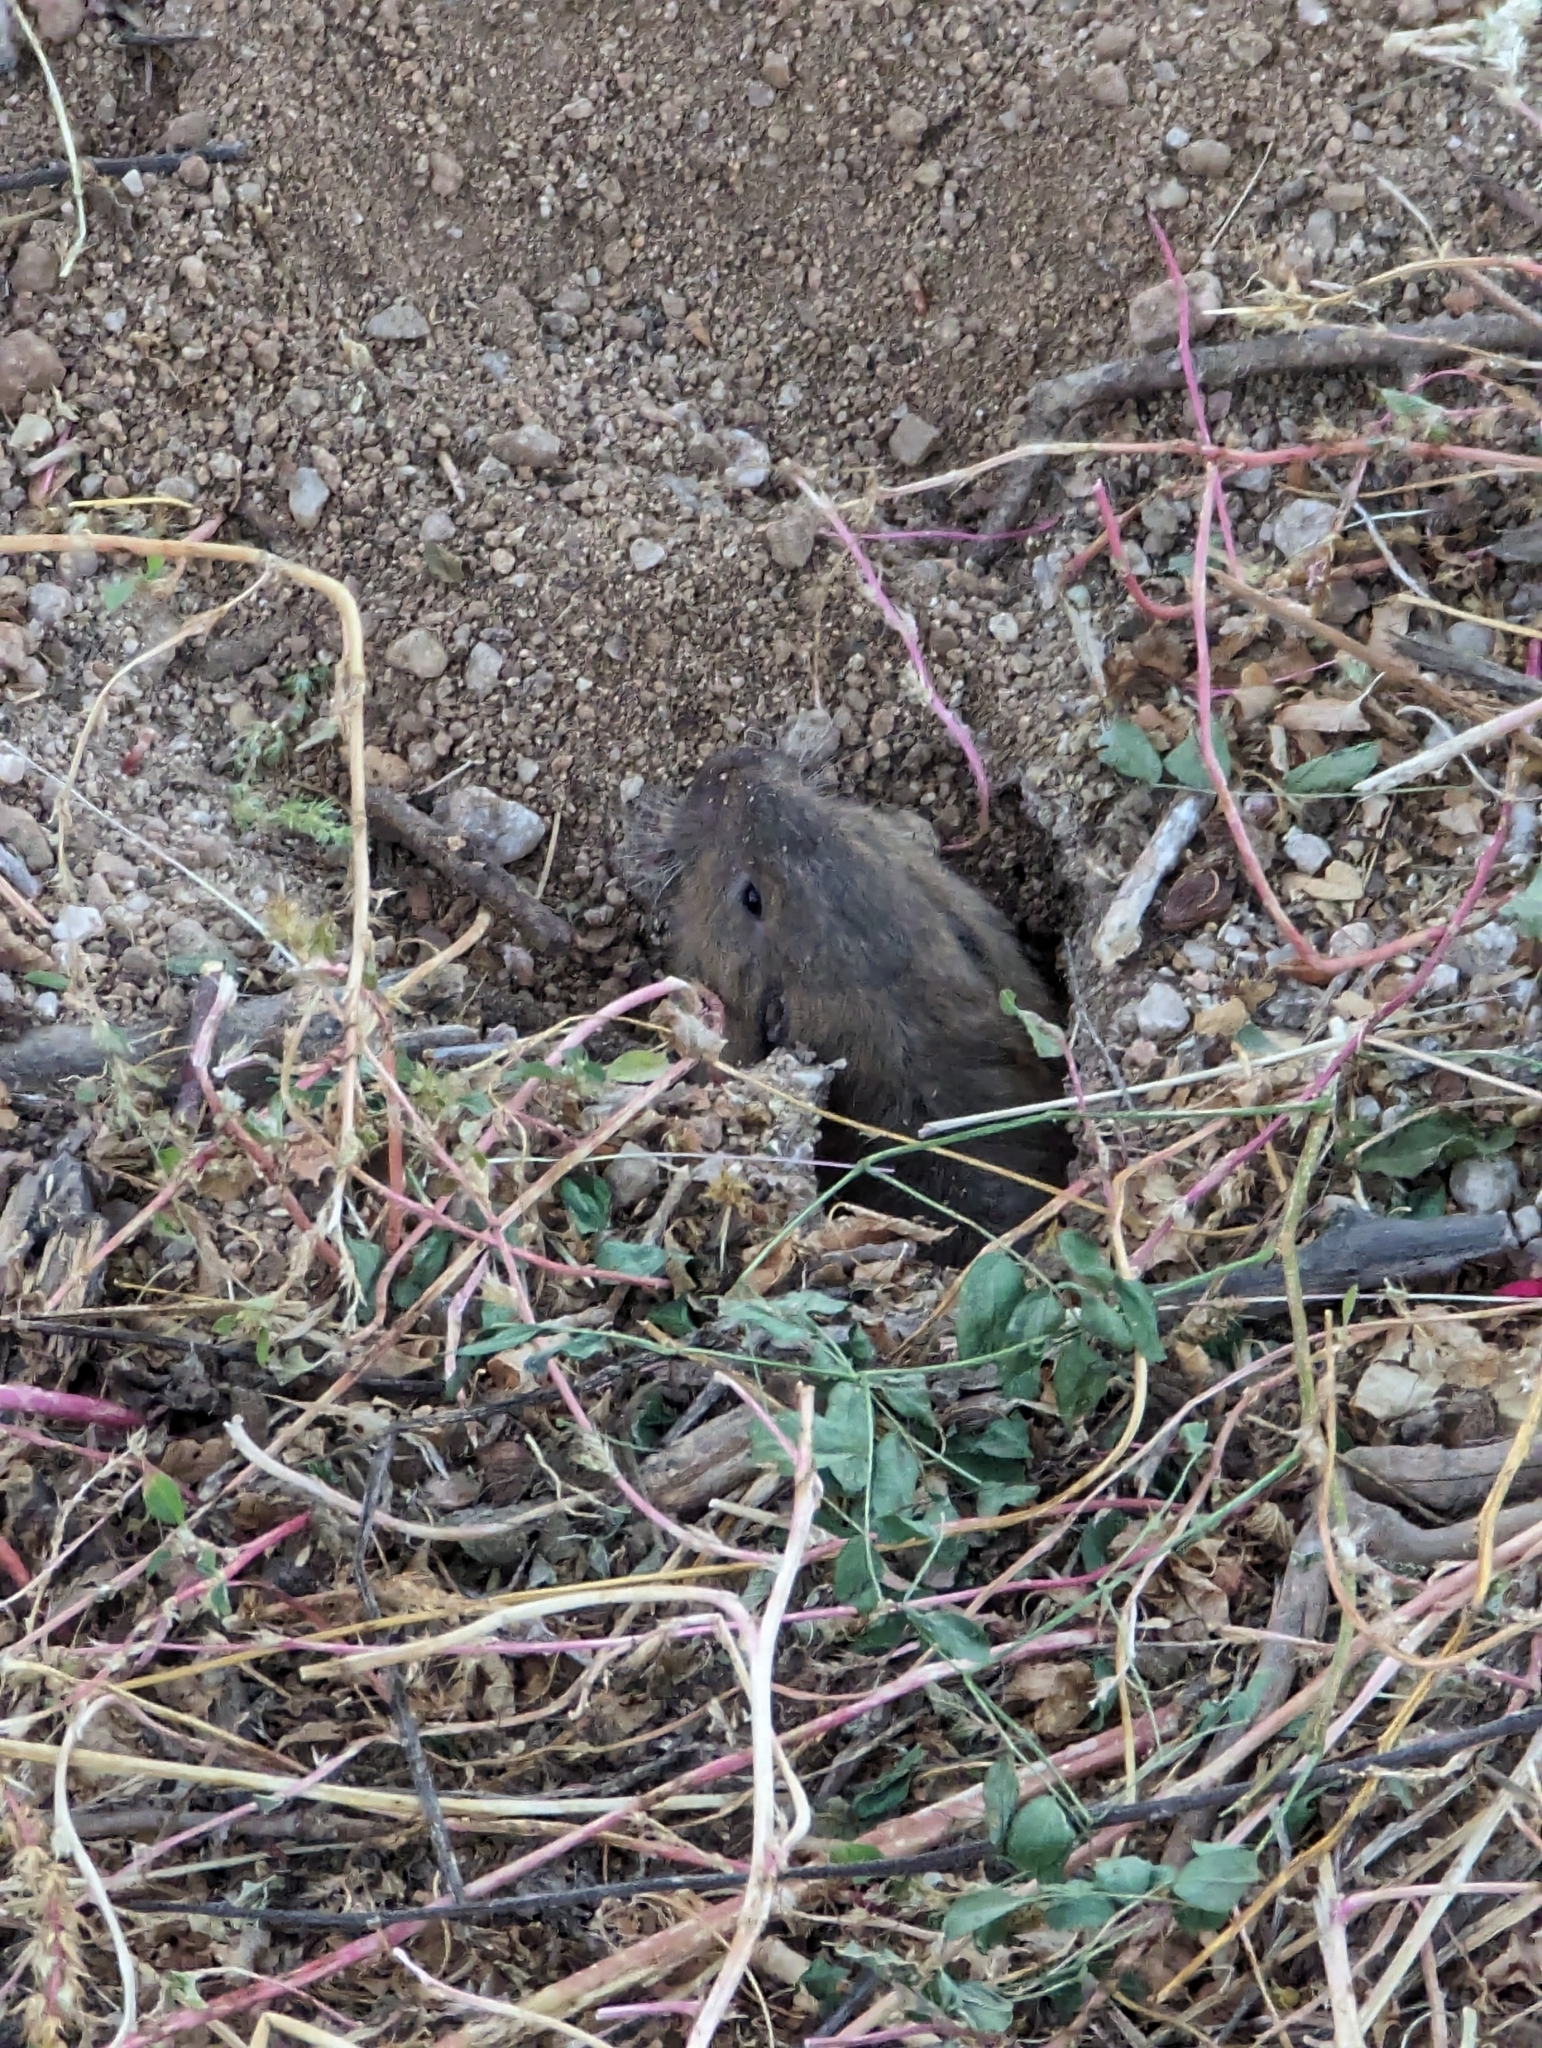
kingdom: Animalia
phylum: Chordata
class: Mammalia
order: Rodentia
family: Geomyidae
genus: Thomomys
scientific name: Thomomys bottae
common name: Botta's pocket gopher
